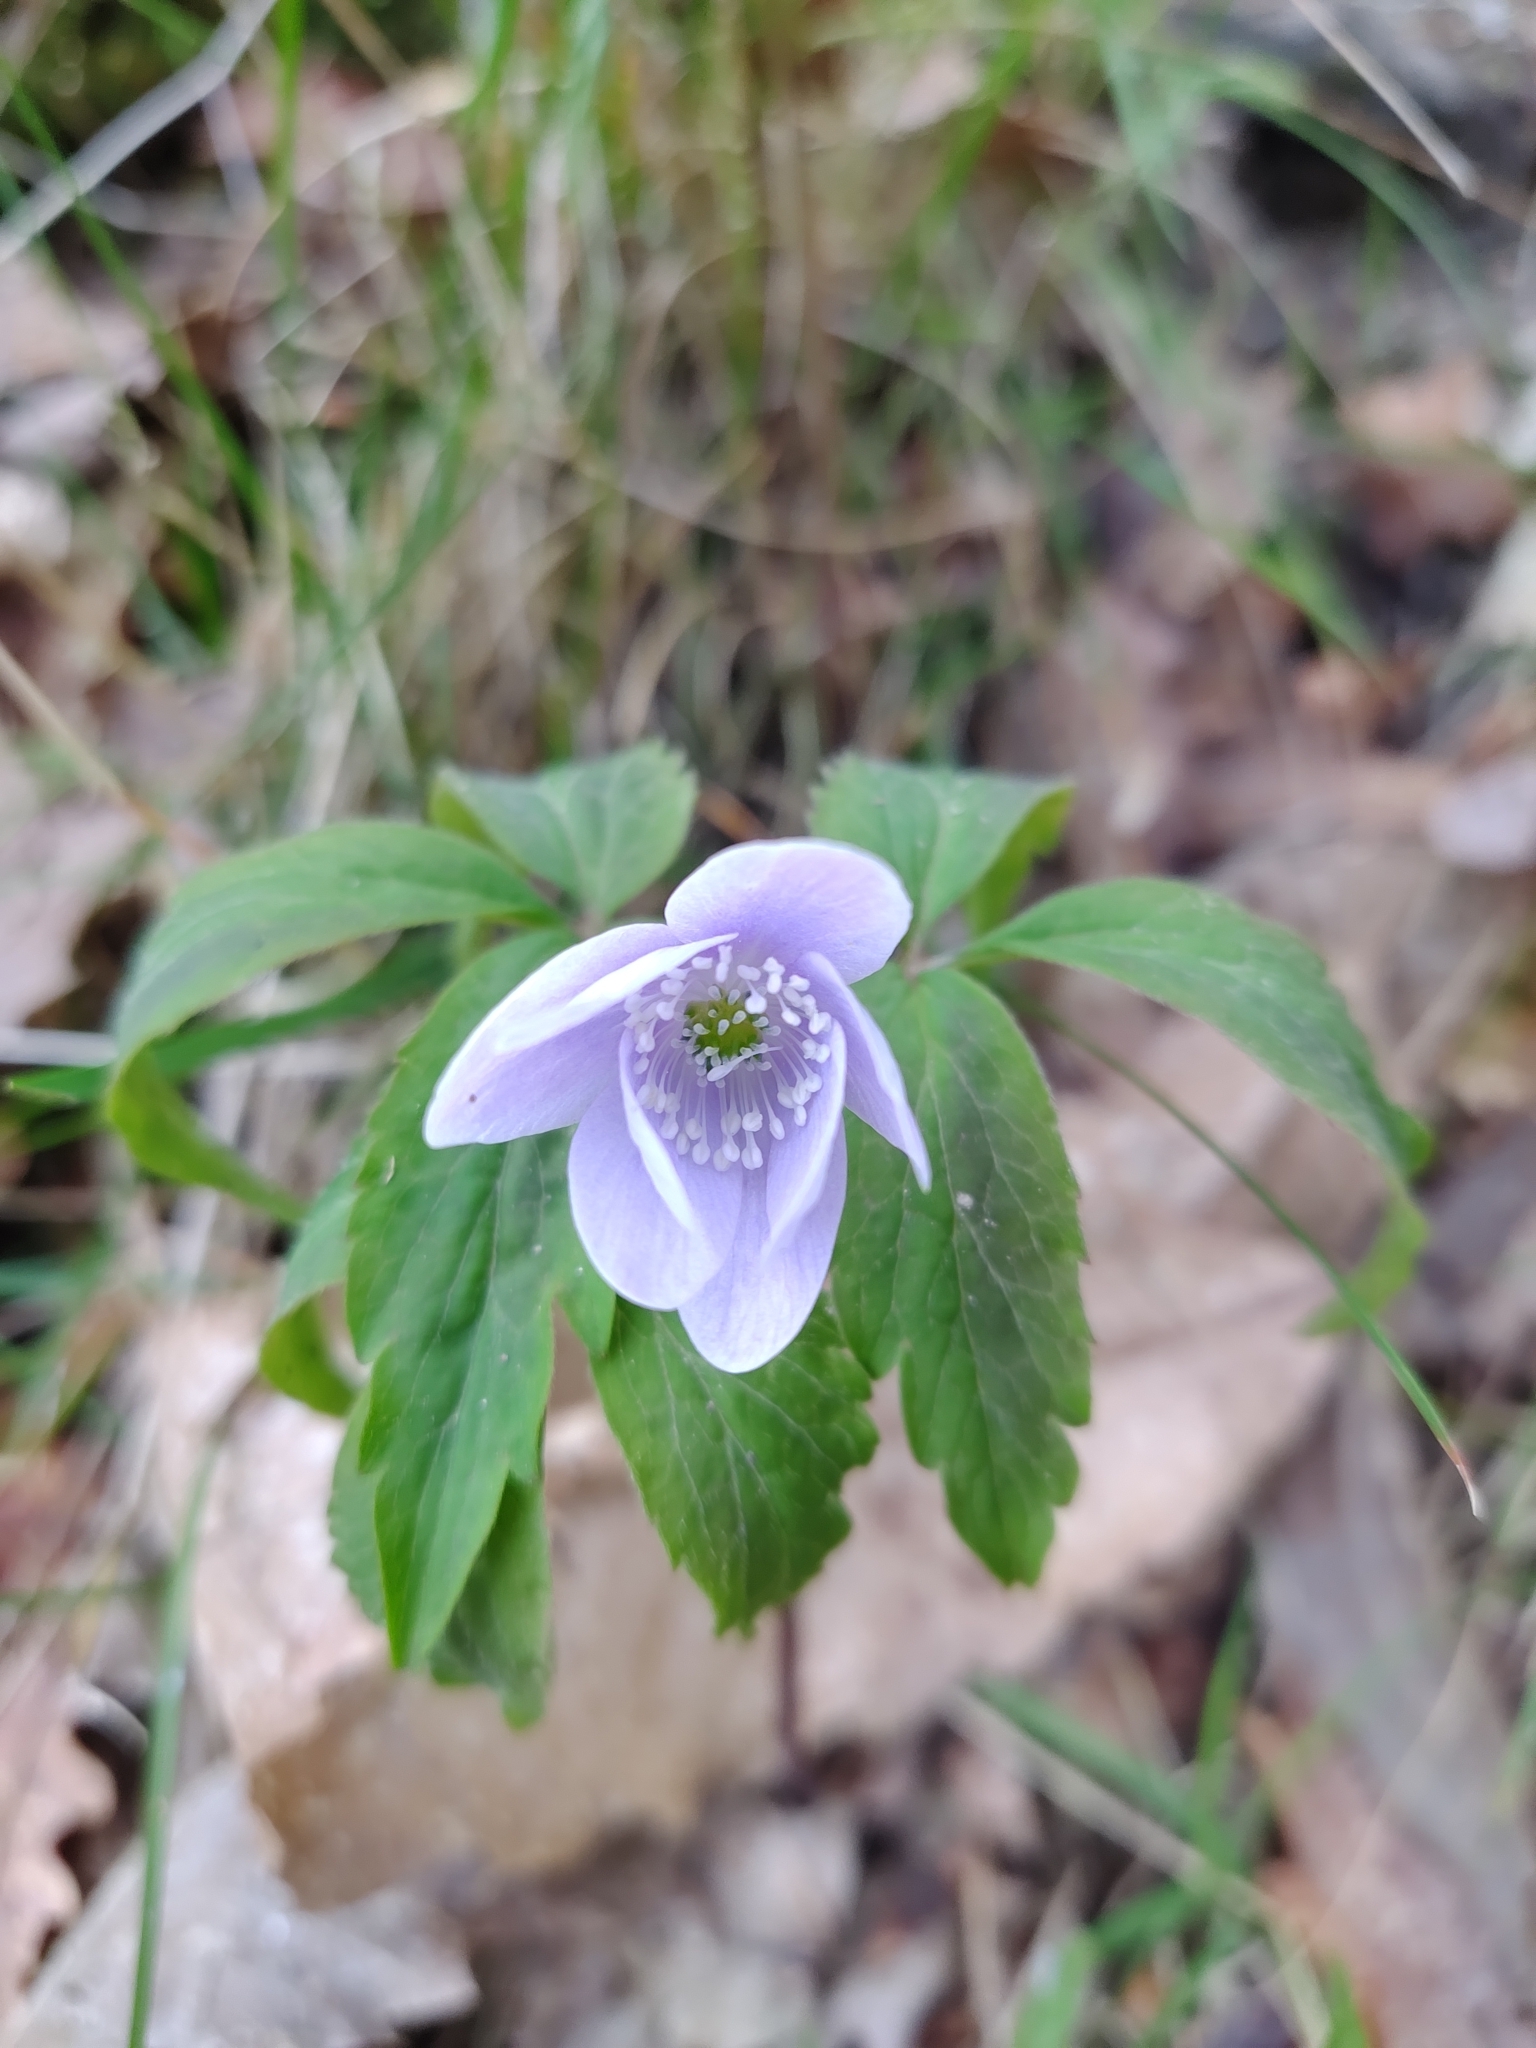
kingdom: Plantae
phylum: Tracheophyta
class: Magnoliopsida
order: Ranunculales
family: Ranunculaceae
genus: Anemone
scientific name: Anemone trifolia
